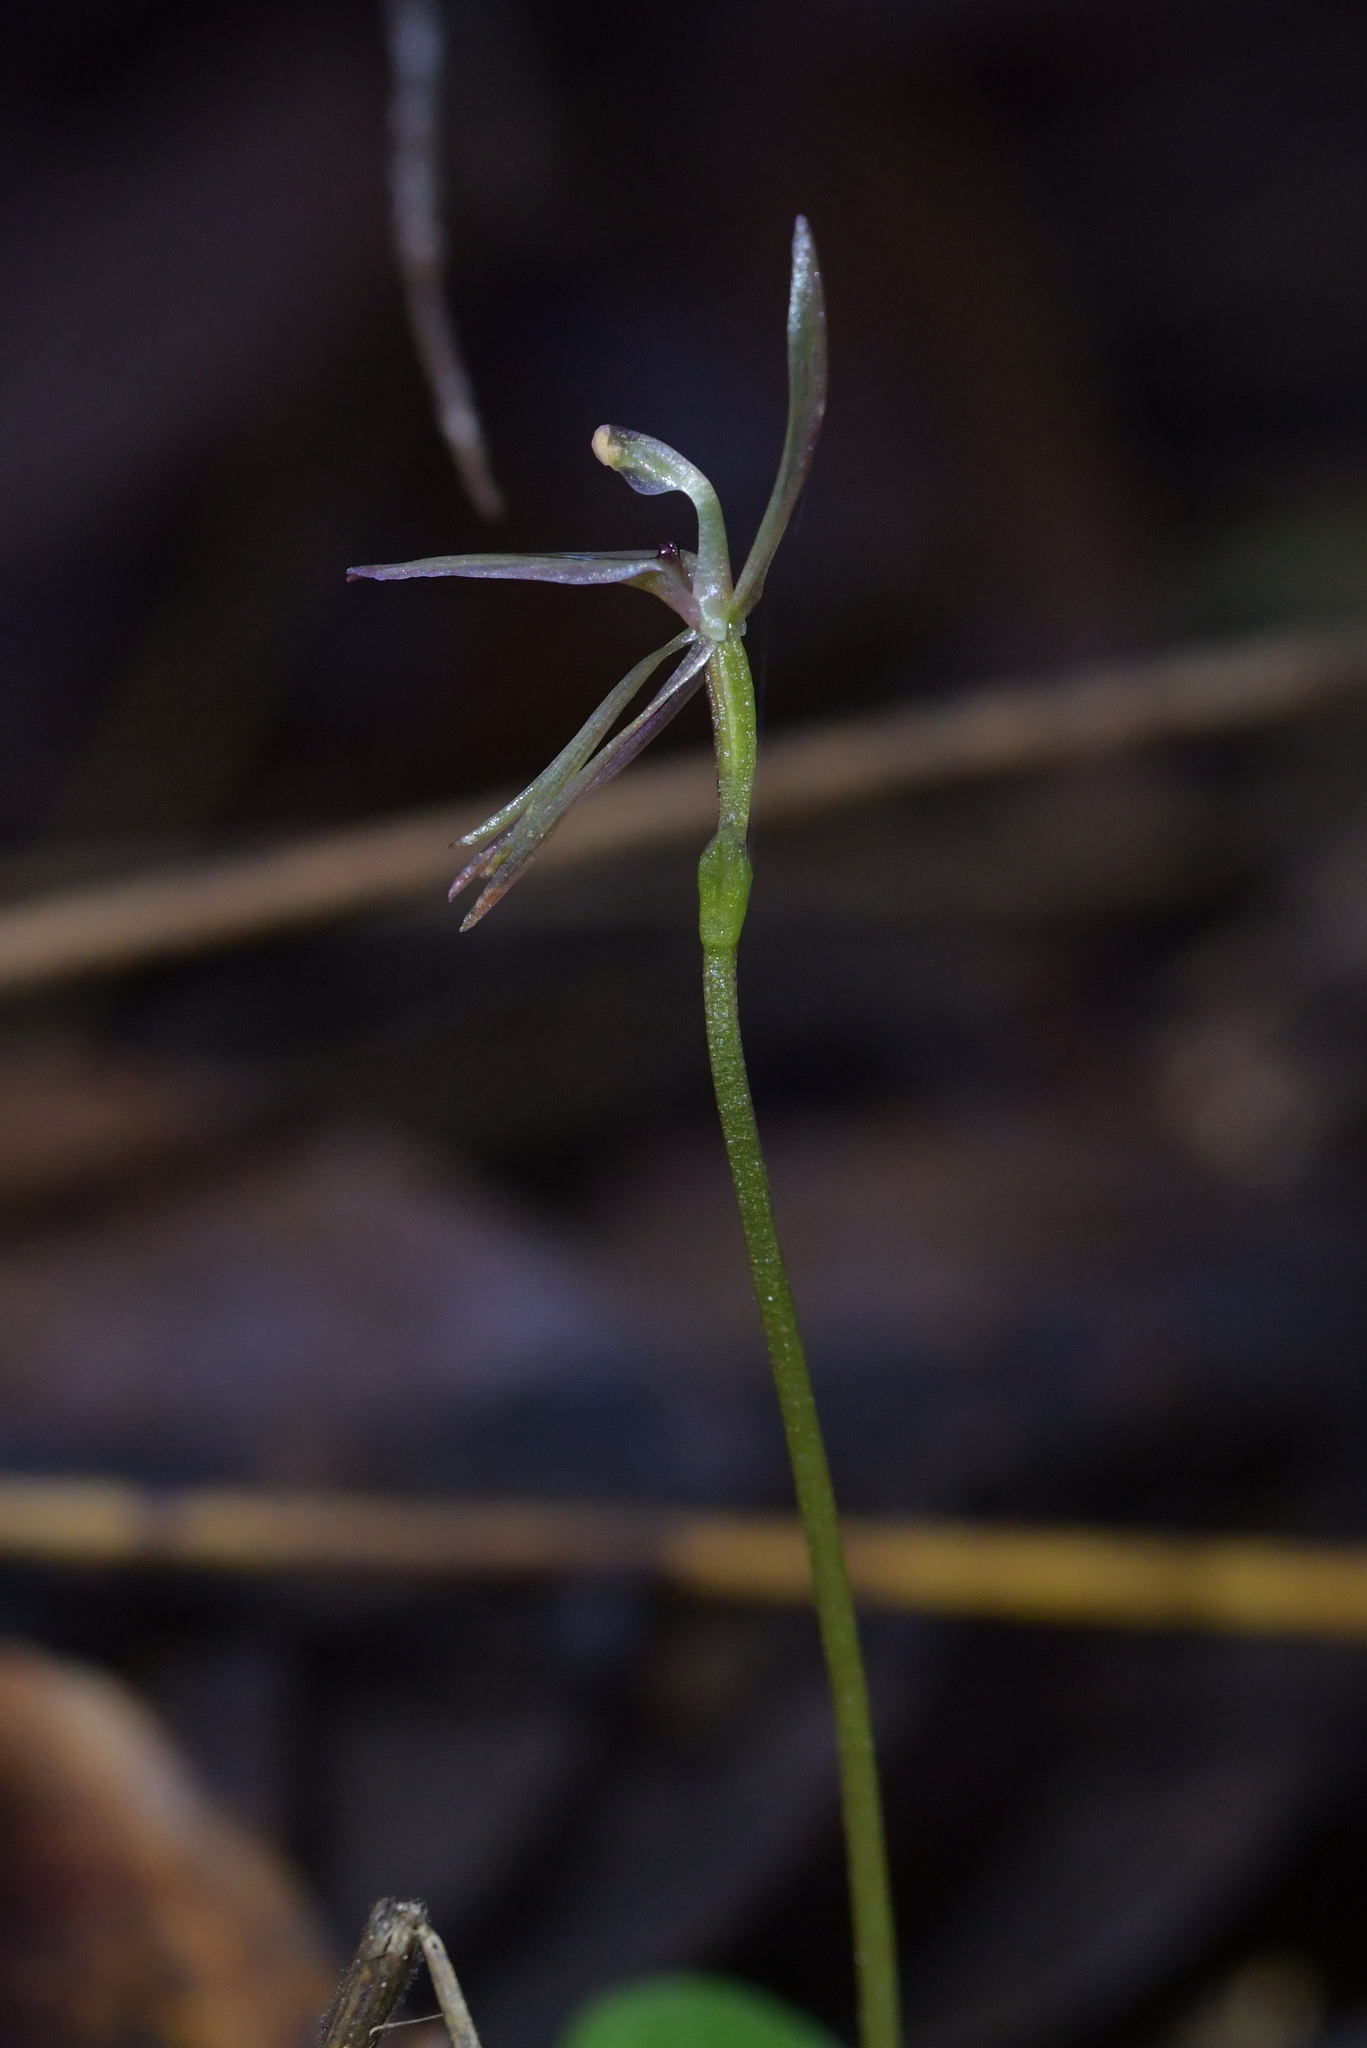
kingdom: Plantae
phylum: Tracheophyta
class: Liliopsida
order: Asparagales
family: Orchidaceae
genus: Cyrtostylis
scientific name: Cyrtostylis oblonga
